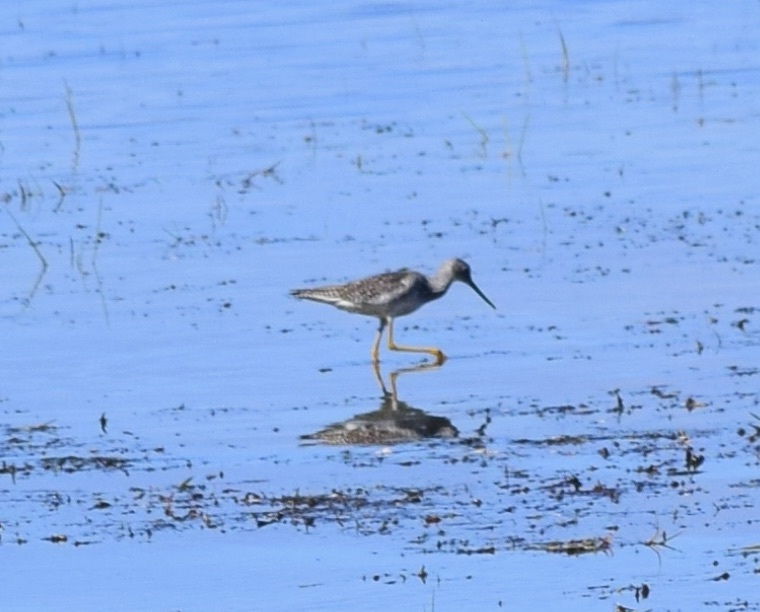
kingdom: Animalia
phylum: Chordata
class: Aves
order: Charadriiformes
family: Scolopacidae
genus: Tringa
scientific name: Tringa melanoleuca
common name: Greater yellowlegs
